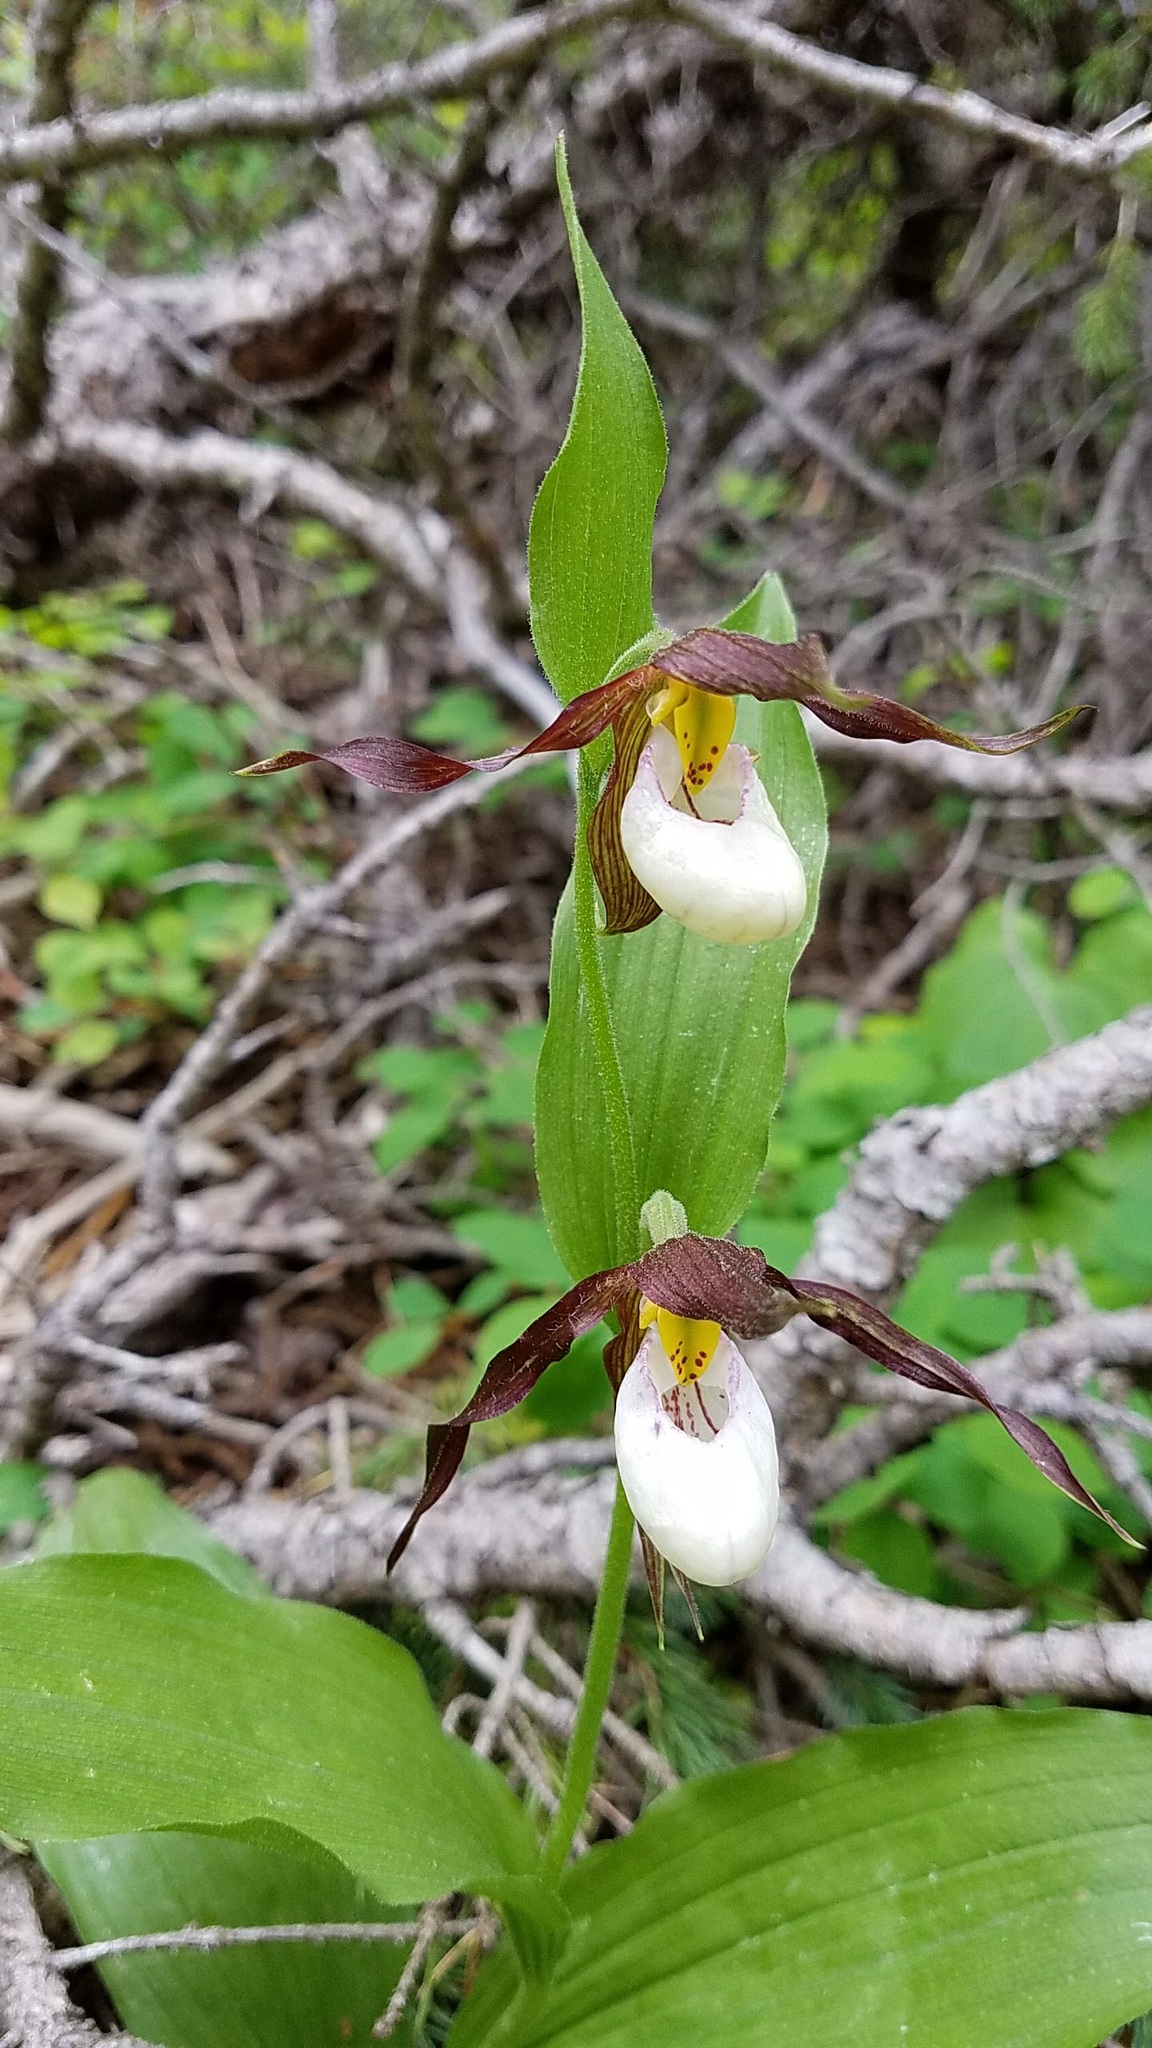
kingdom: Plantae
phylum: Tracheophyta
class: Liliopsida
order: Asparagales
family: Orchidaceae
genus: Cypripedium
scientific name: Cypripedium montanum
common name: Mountain lady's-slipper
